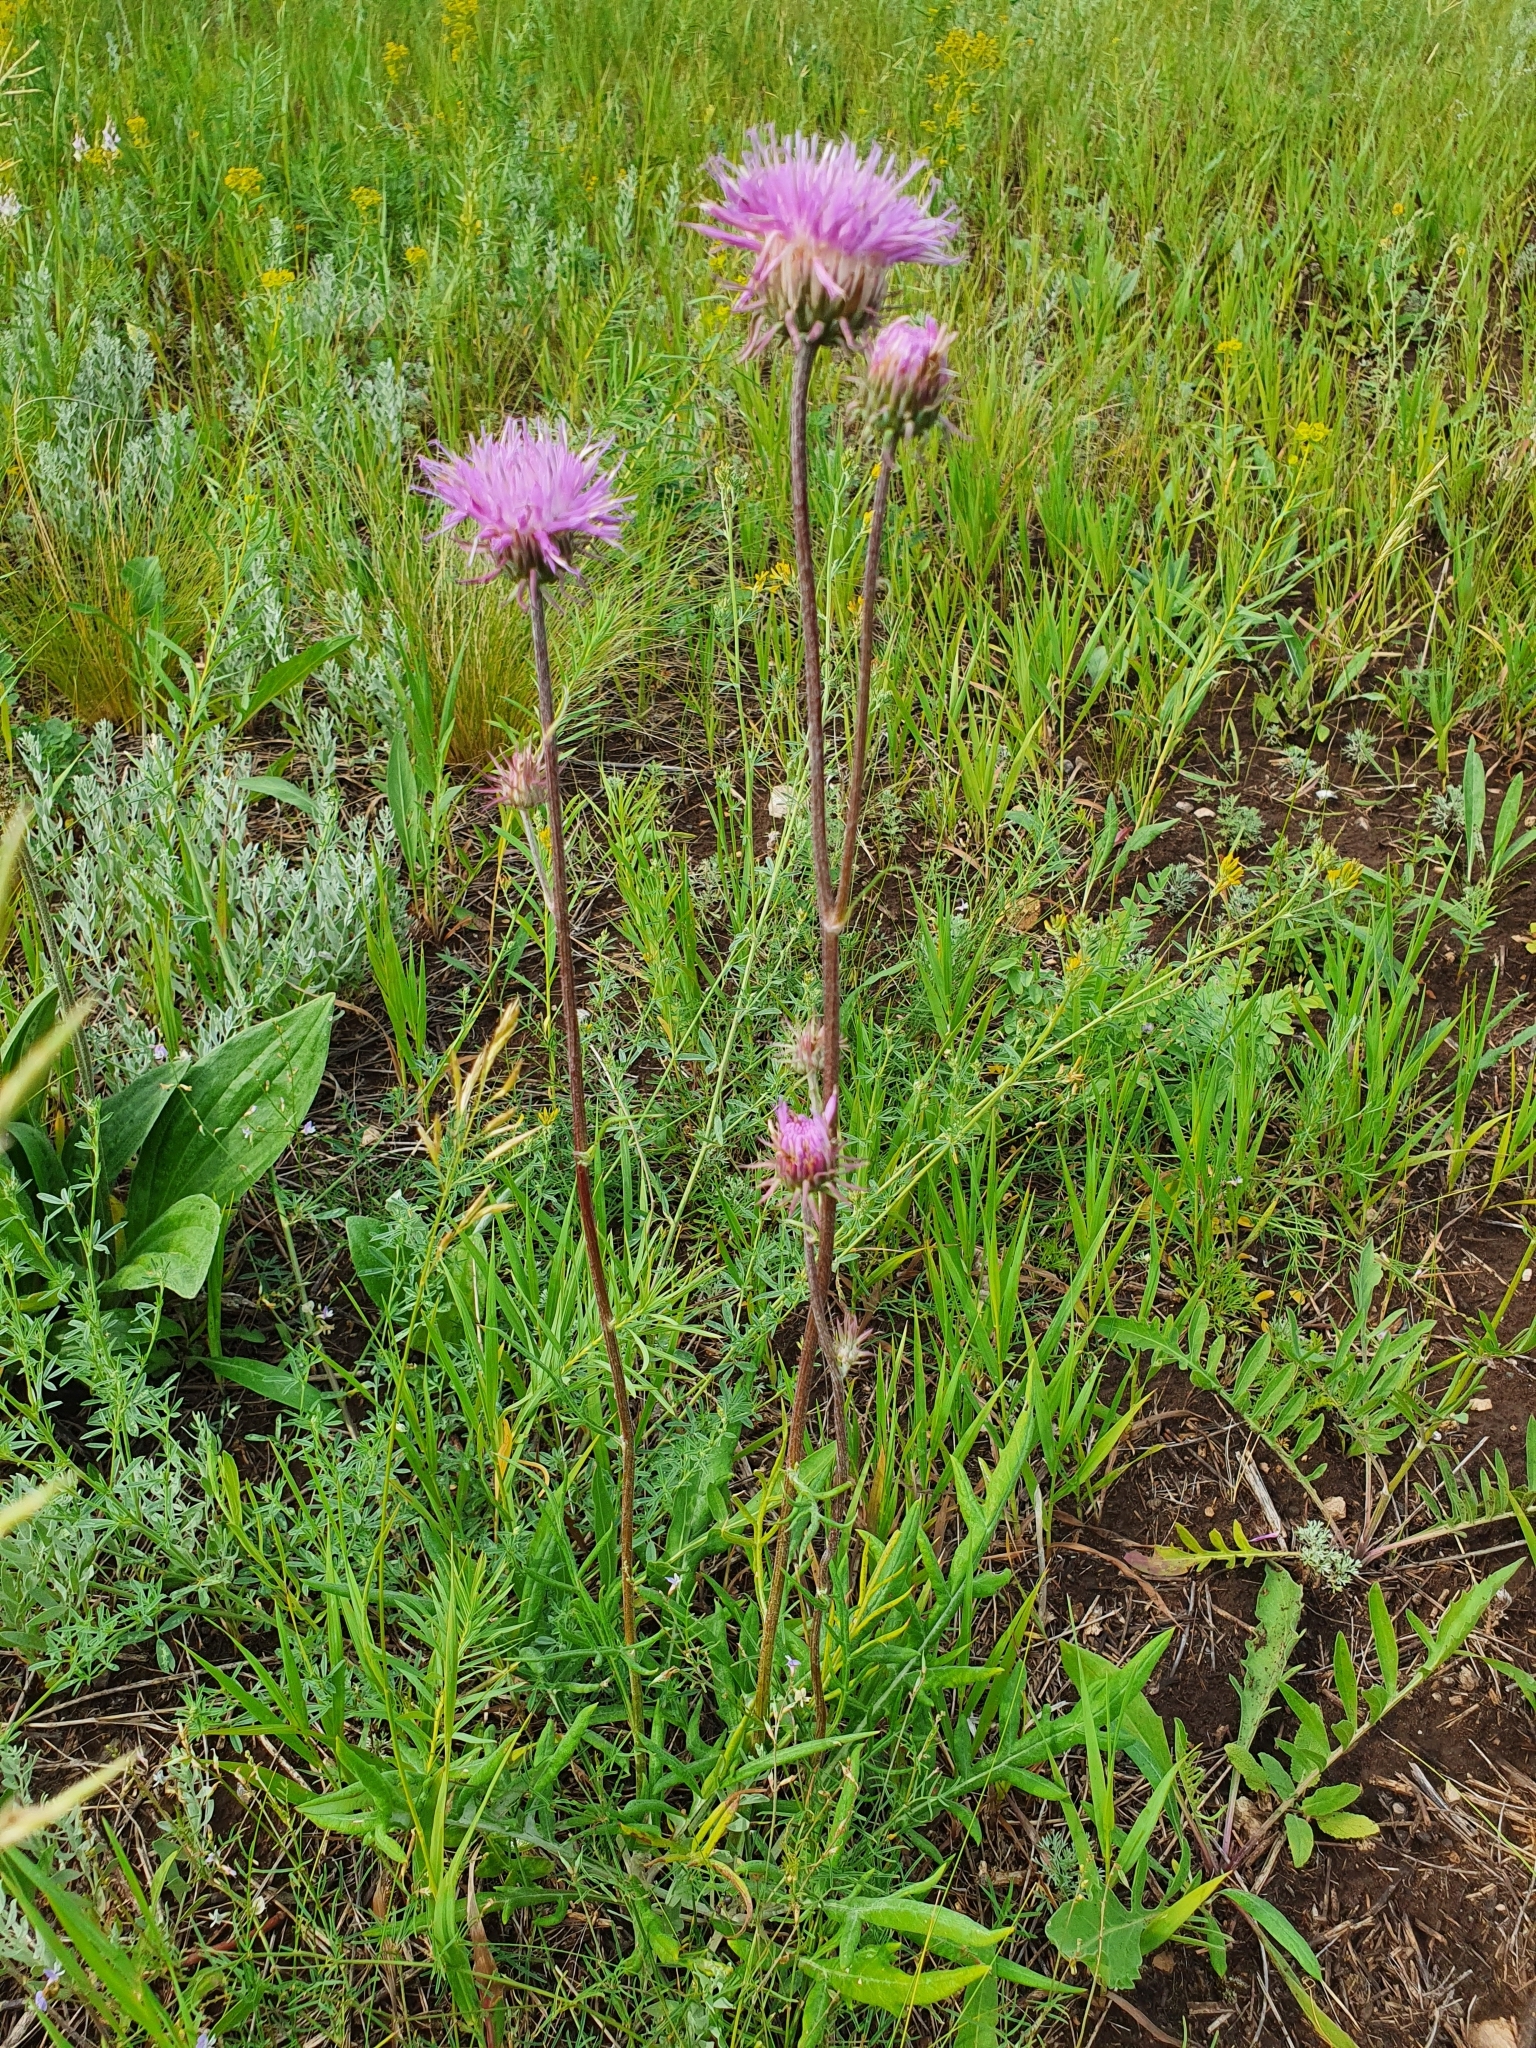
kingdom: Plantae
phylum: Tracheophyta
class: Magnoliopsida
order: Asterales
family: Asteraceae
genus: Jurinea
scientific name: Jurinea cyanoides
